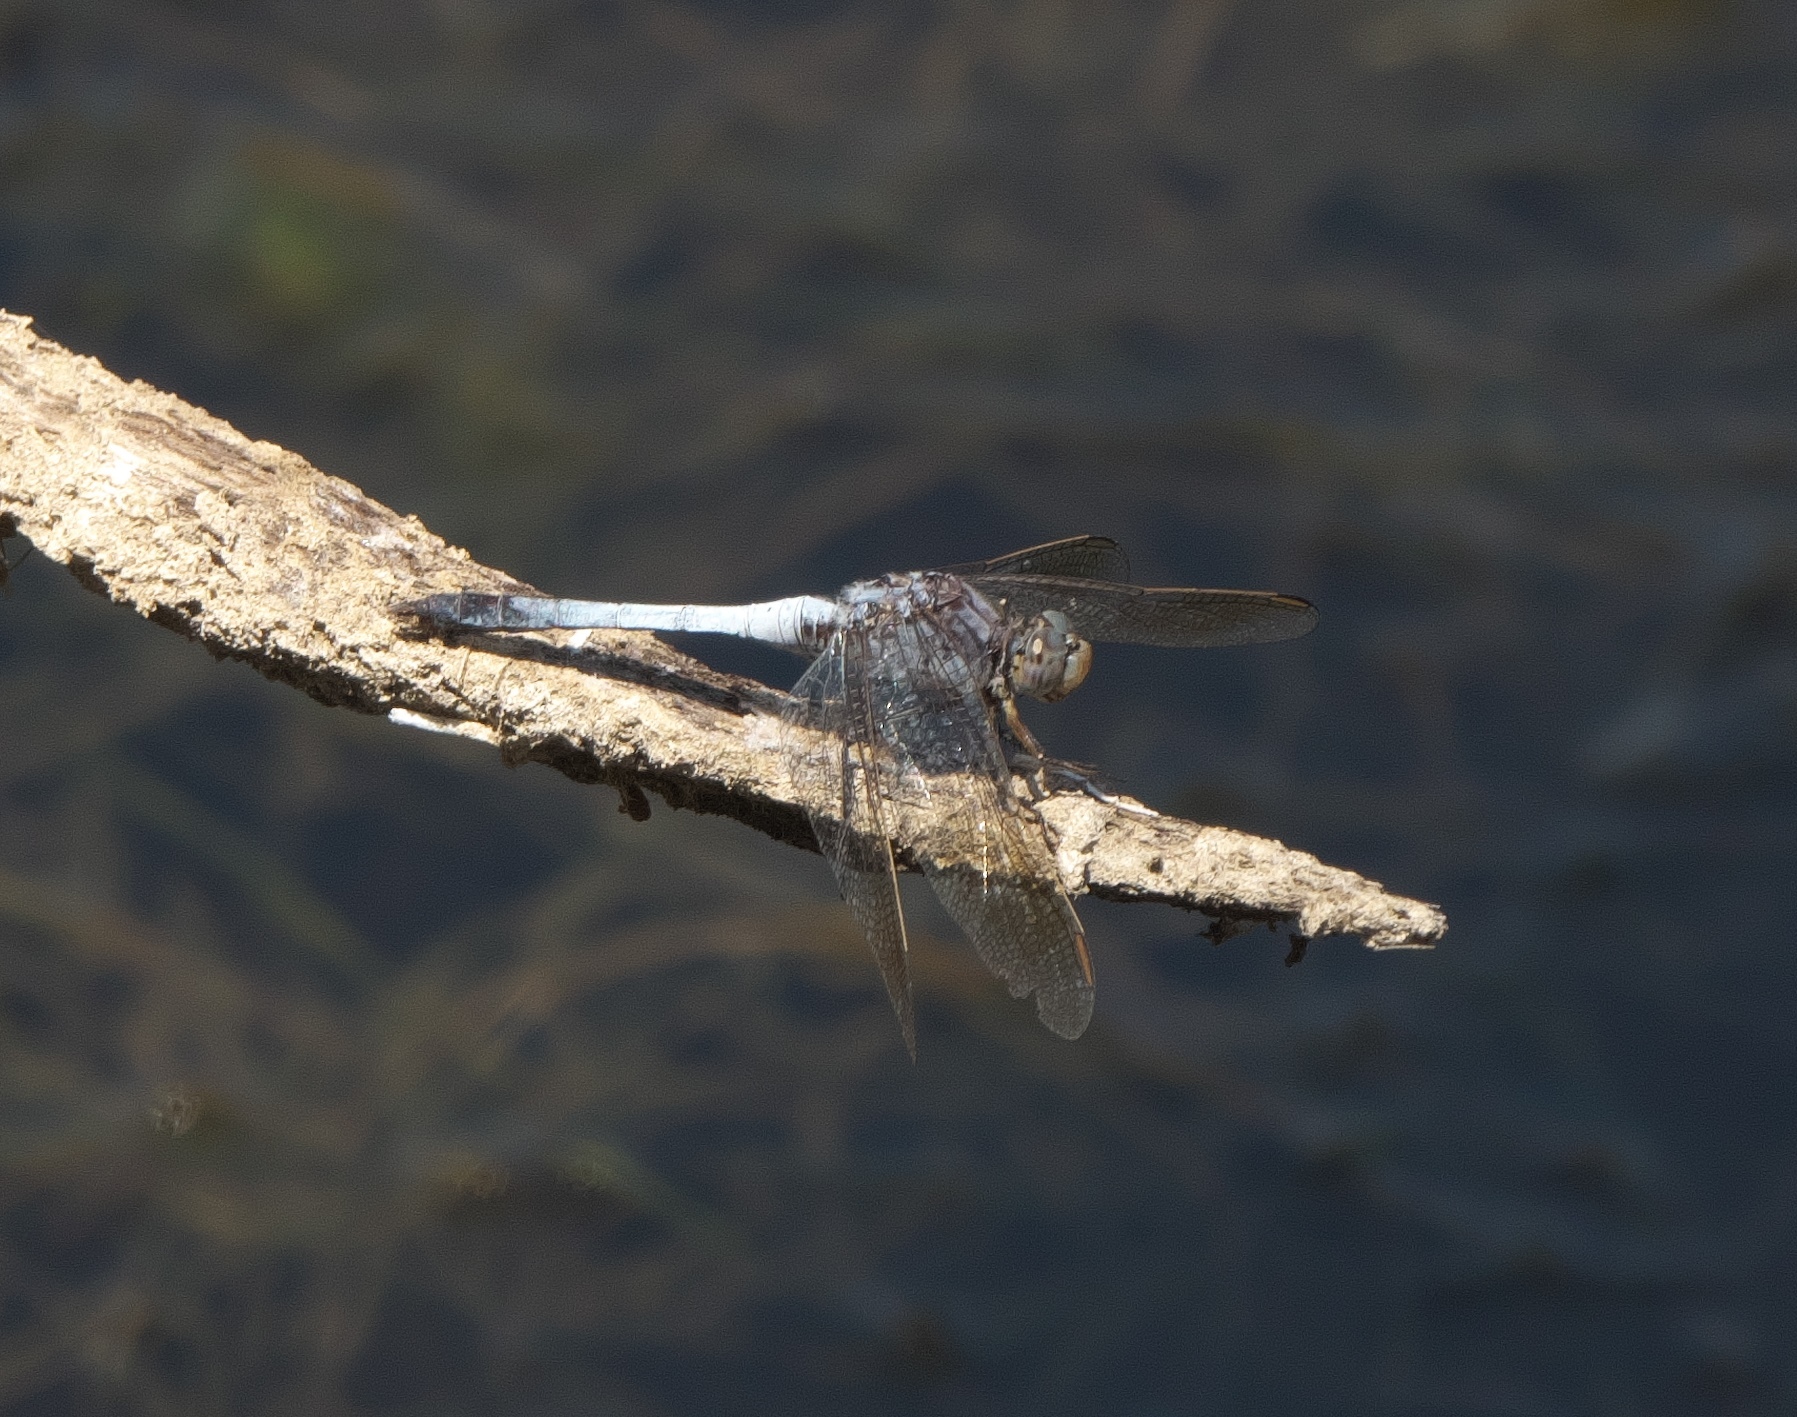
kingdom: Animalia
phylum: Arthropoda
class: Insecta
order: Odonata
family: Libellulidae
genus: Orthetrum
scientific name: Orthetrum caledonicum
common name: Blue skimmer
